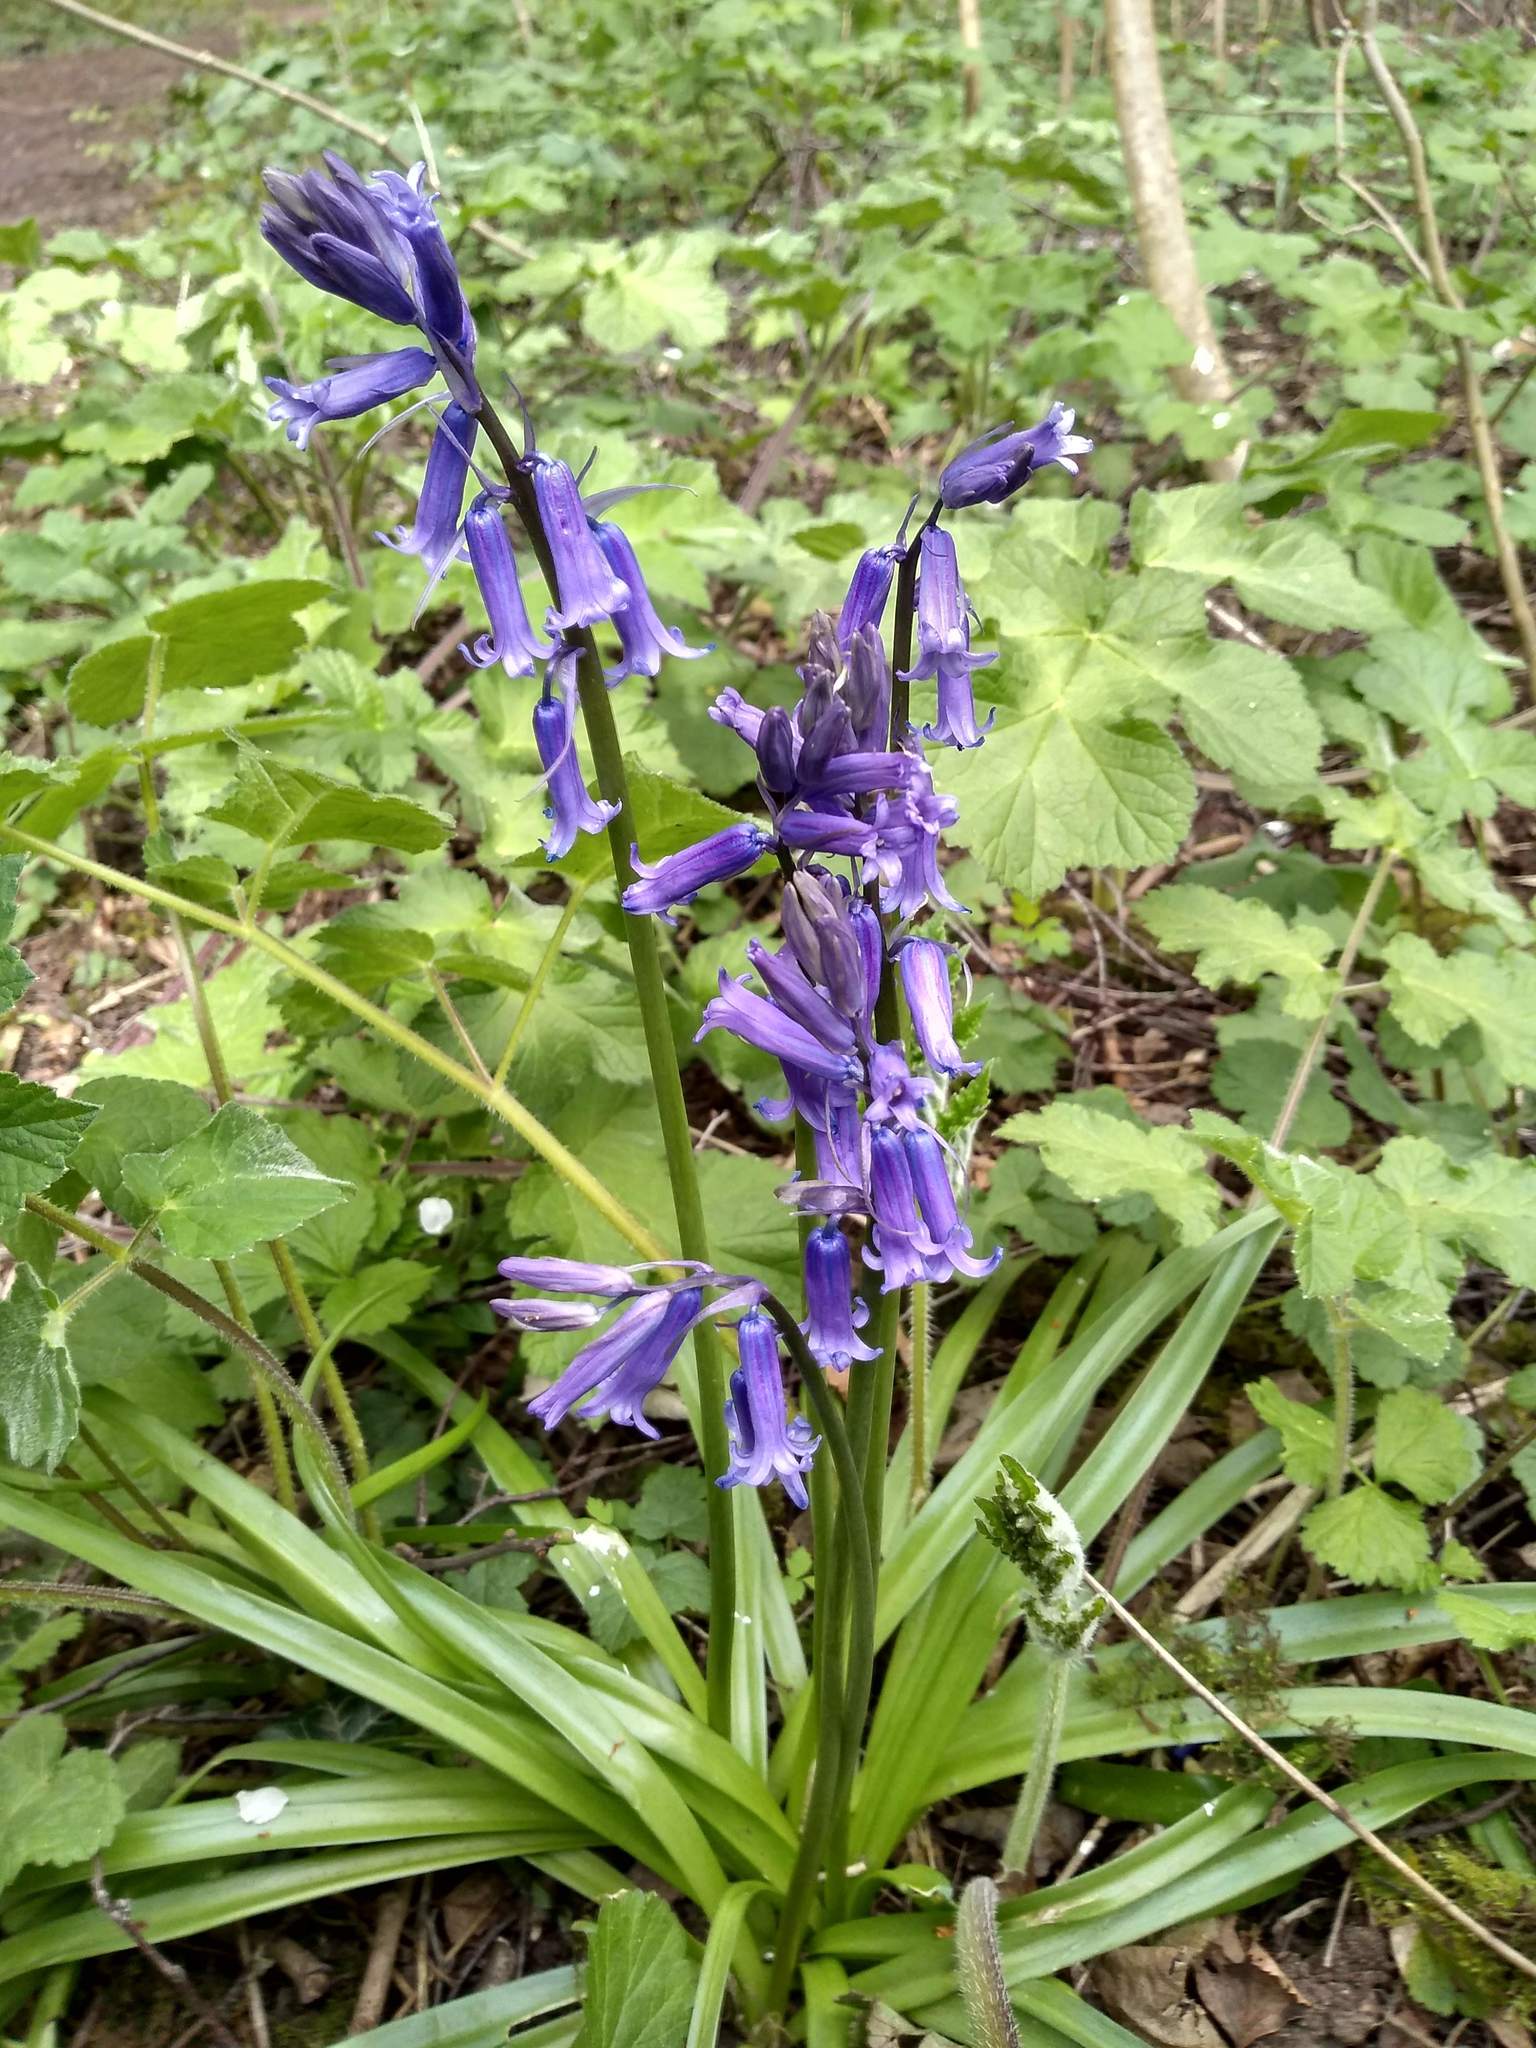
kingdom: Plantae
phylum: Tracheophyta
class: Liliopsida
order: Asparagales
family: Asparagaceae
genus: Hyacinthoides
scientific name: Hyacinthoides non-scripta
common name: Bluebell
